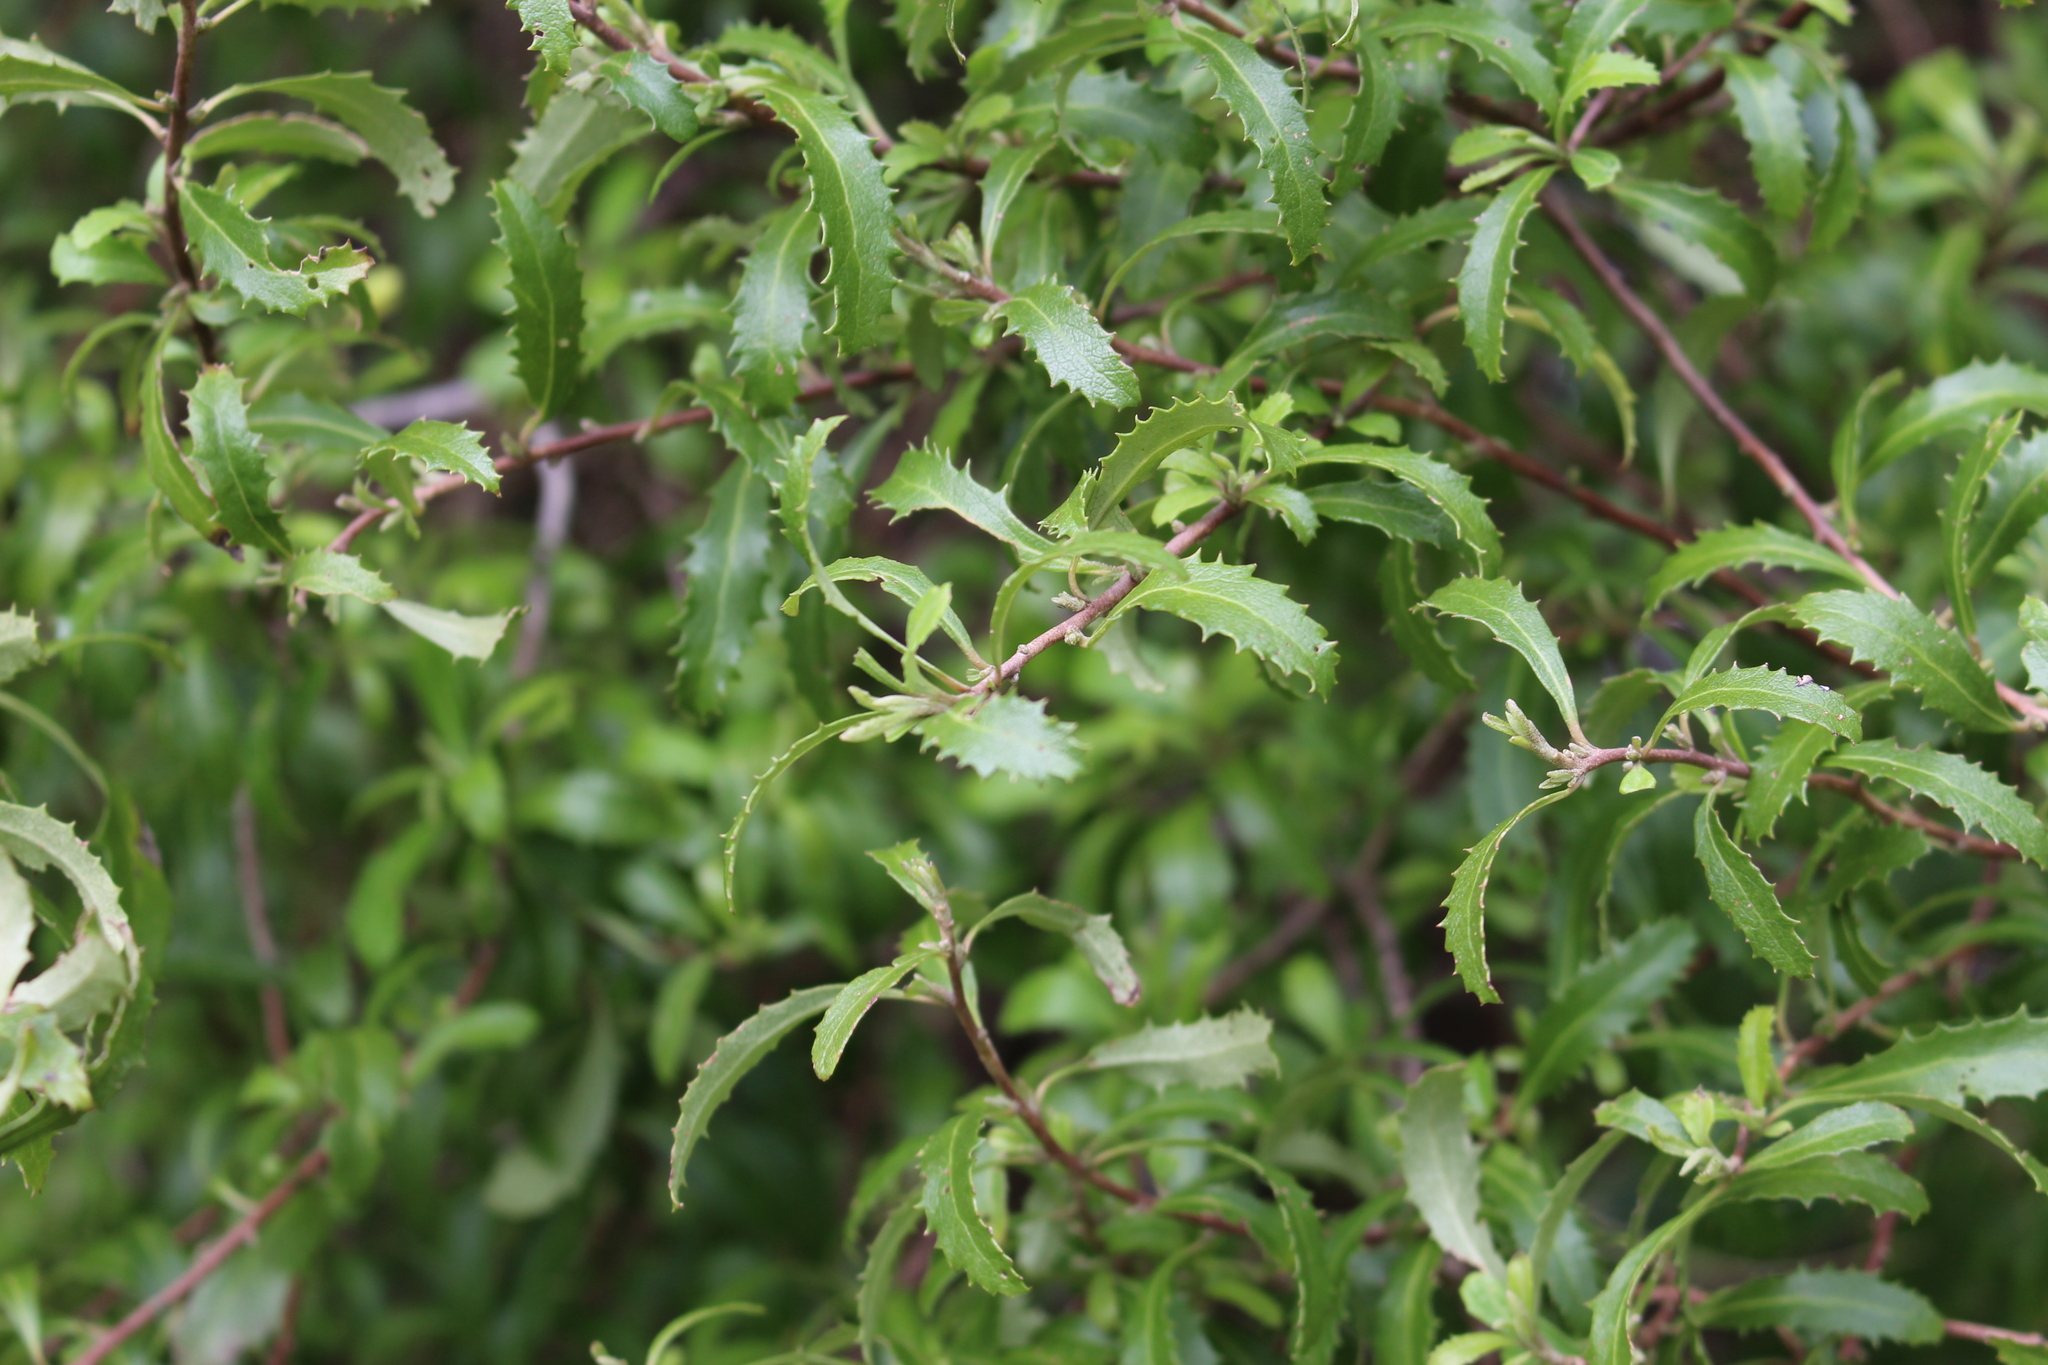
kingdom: Plantae
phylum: Tracheophyta
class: Magnoliopsida
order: Malvales
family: Malvaceae
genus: Hoheria
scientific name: Hoheria angustifolia
